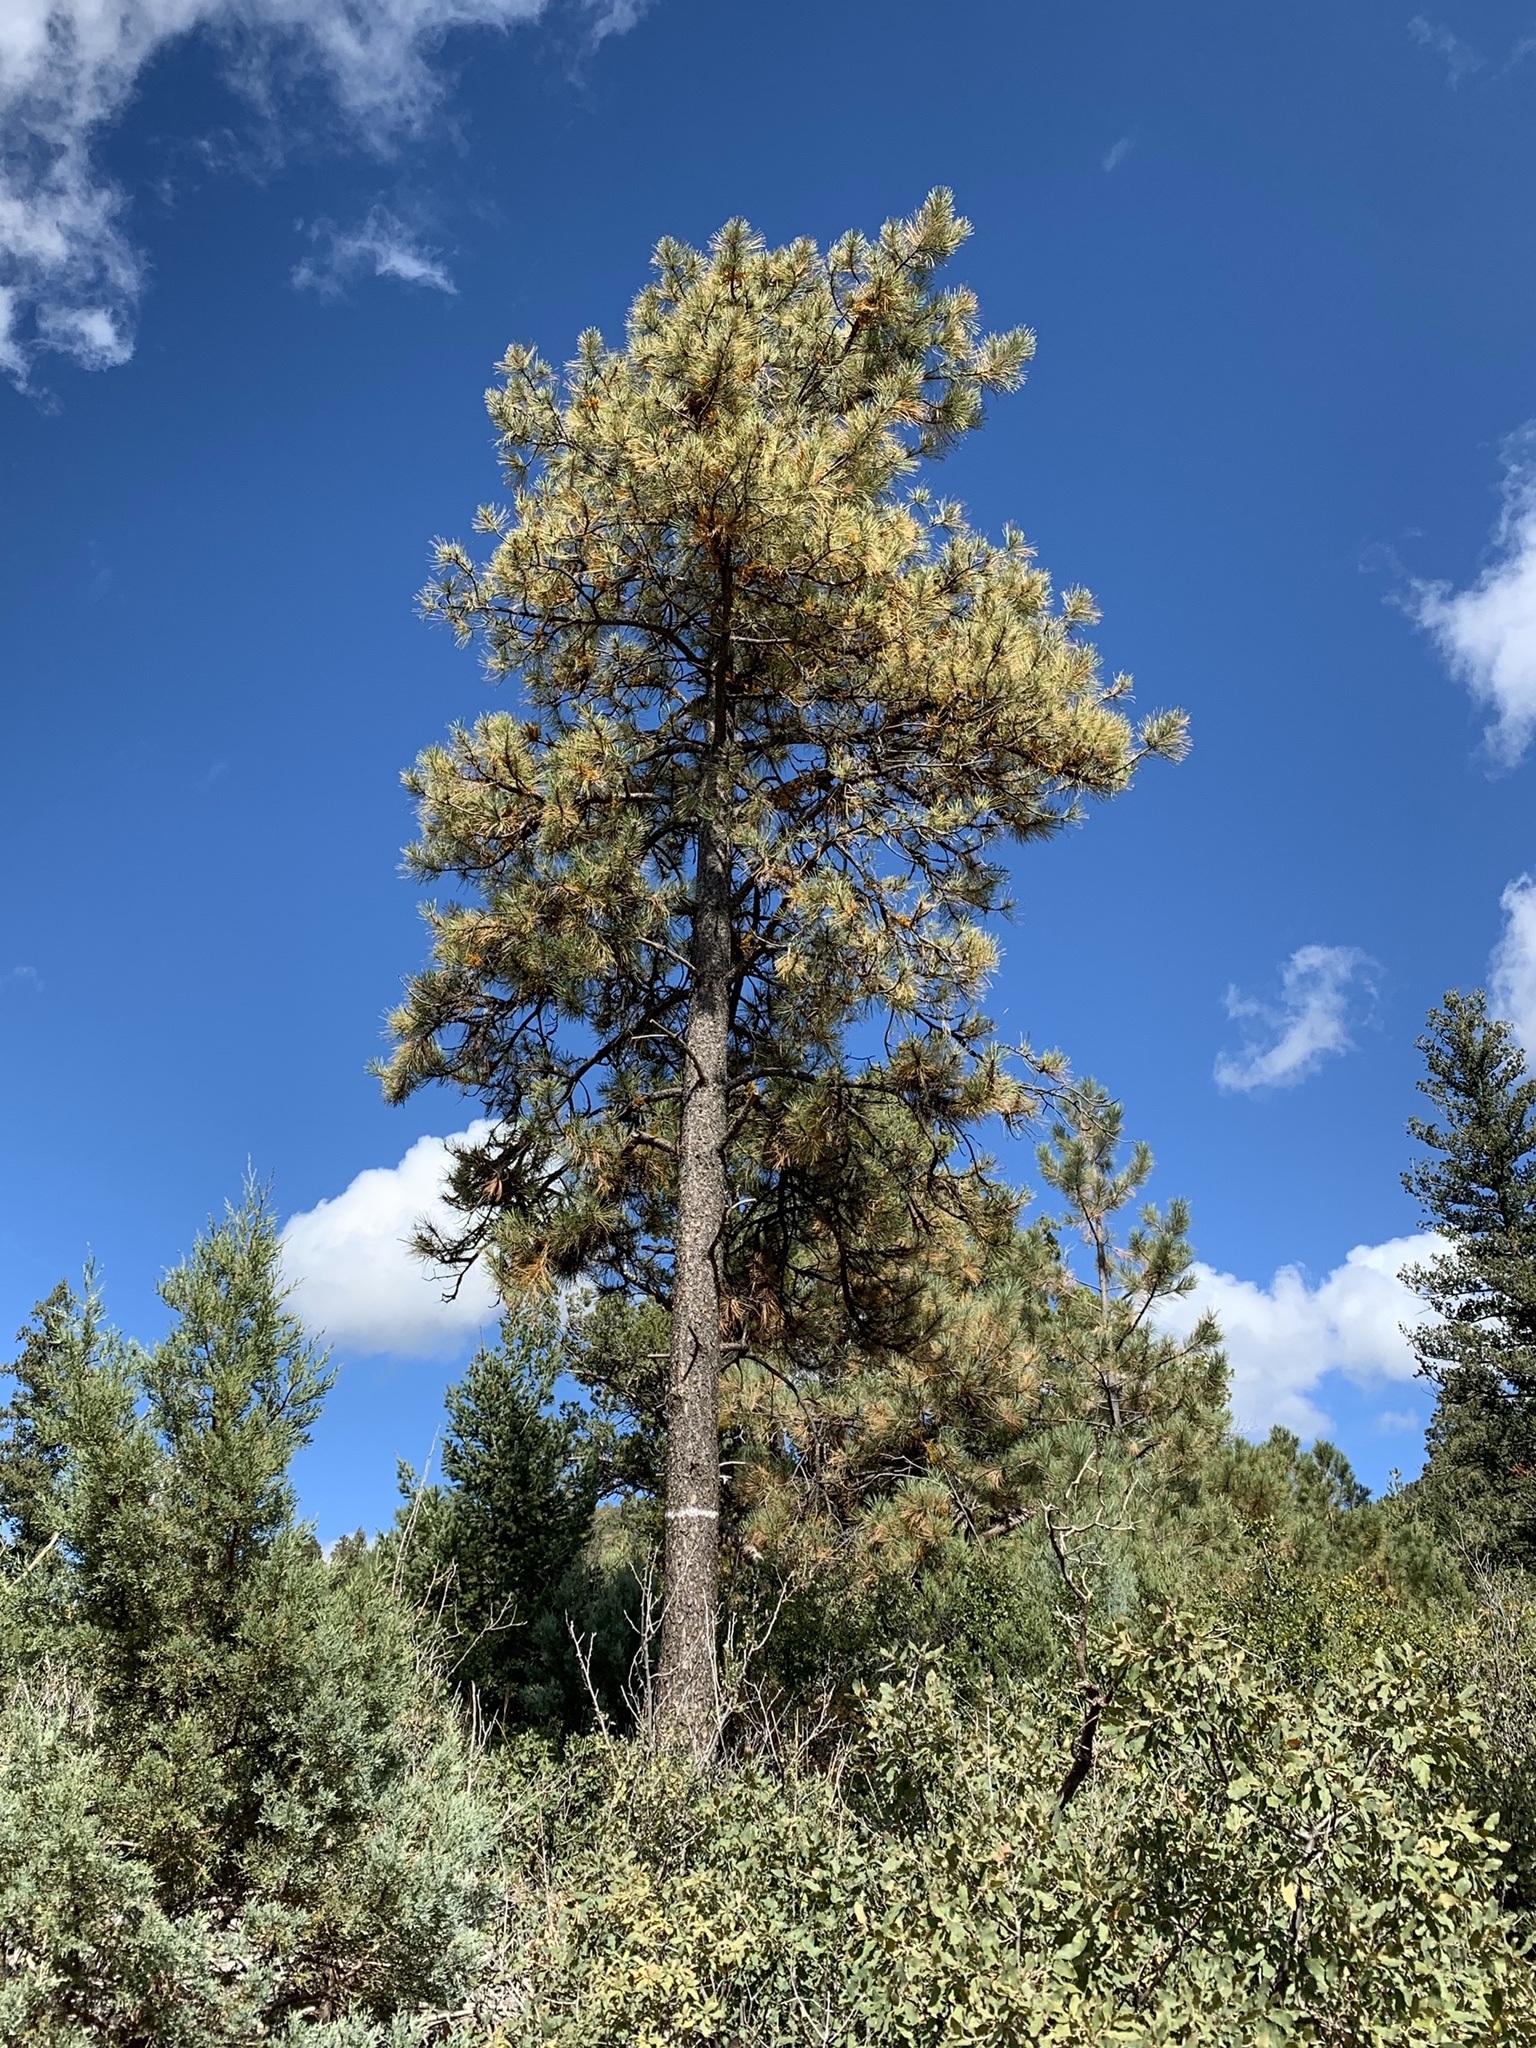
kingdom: Plantae
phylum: Tracheophyta
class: Pinopsida
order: Pinales
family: Pinaceae
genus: Pinus
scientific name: Pinus ponderosa
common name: Western yellow-pine
